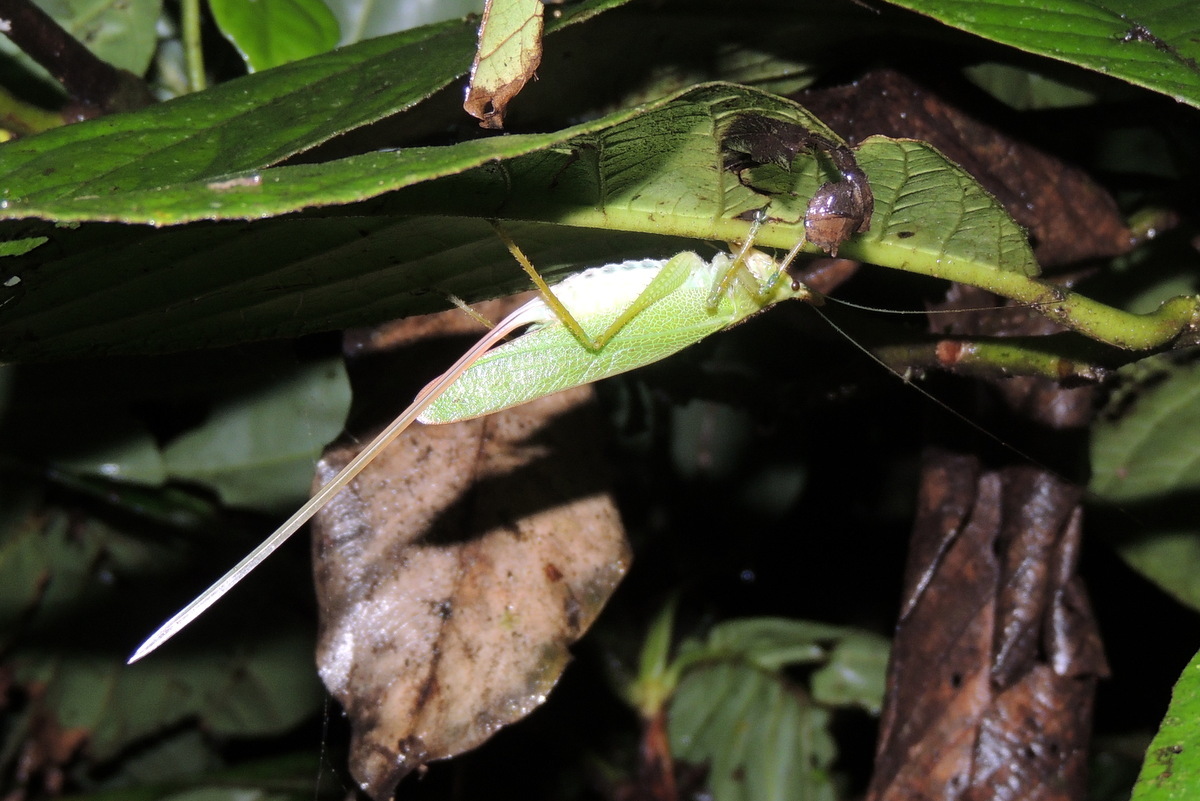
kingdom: Animalia
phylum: Arthropoda
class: Insecta
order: Orthoptera
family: Tettigoniidae
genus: Copiphora
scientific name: Copiphora hastata
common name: Brown-faced spearbearer
